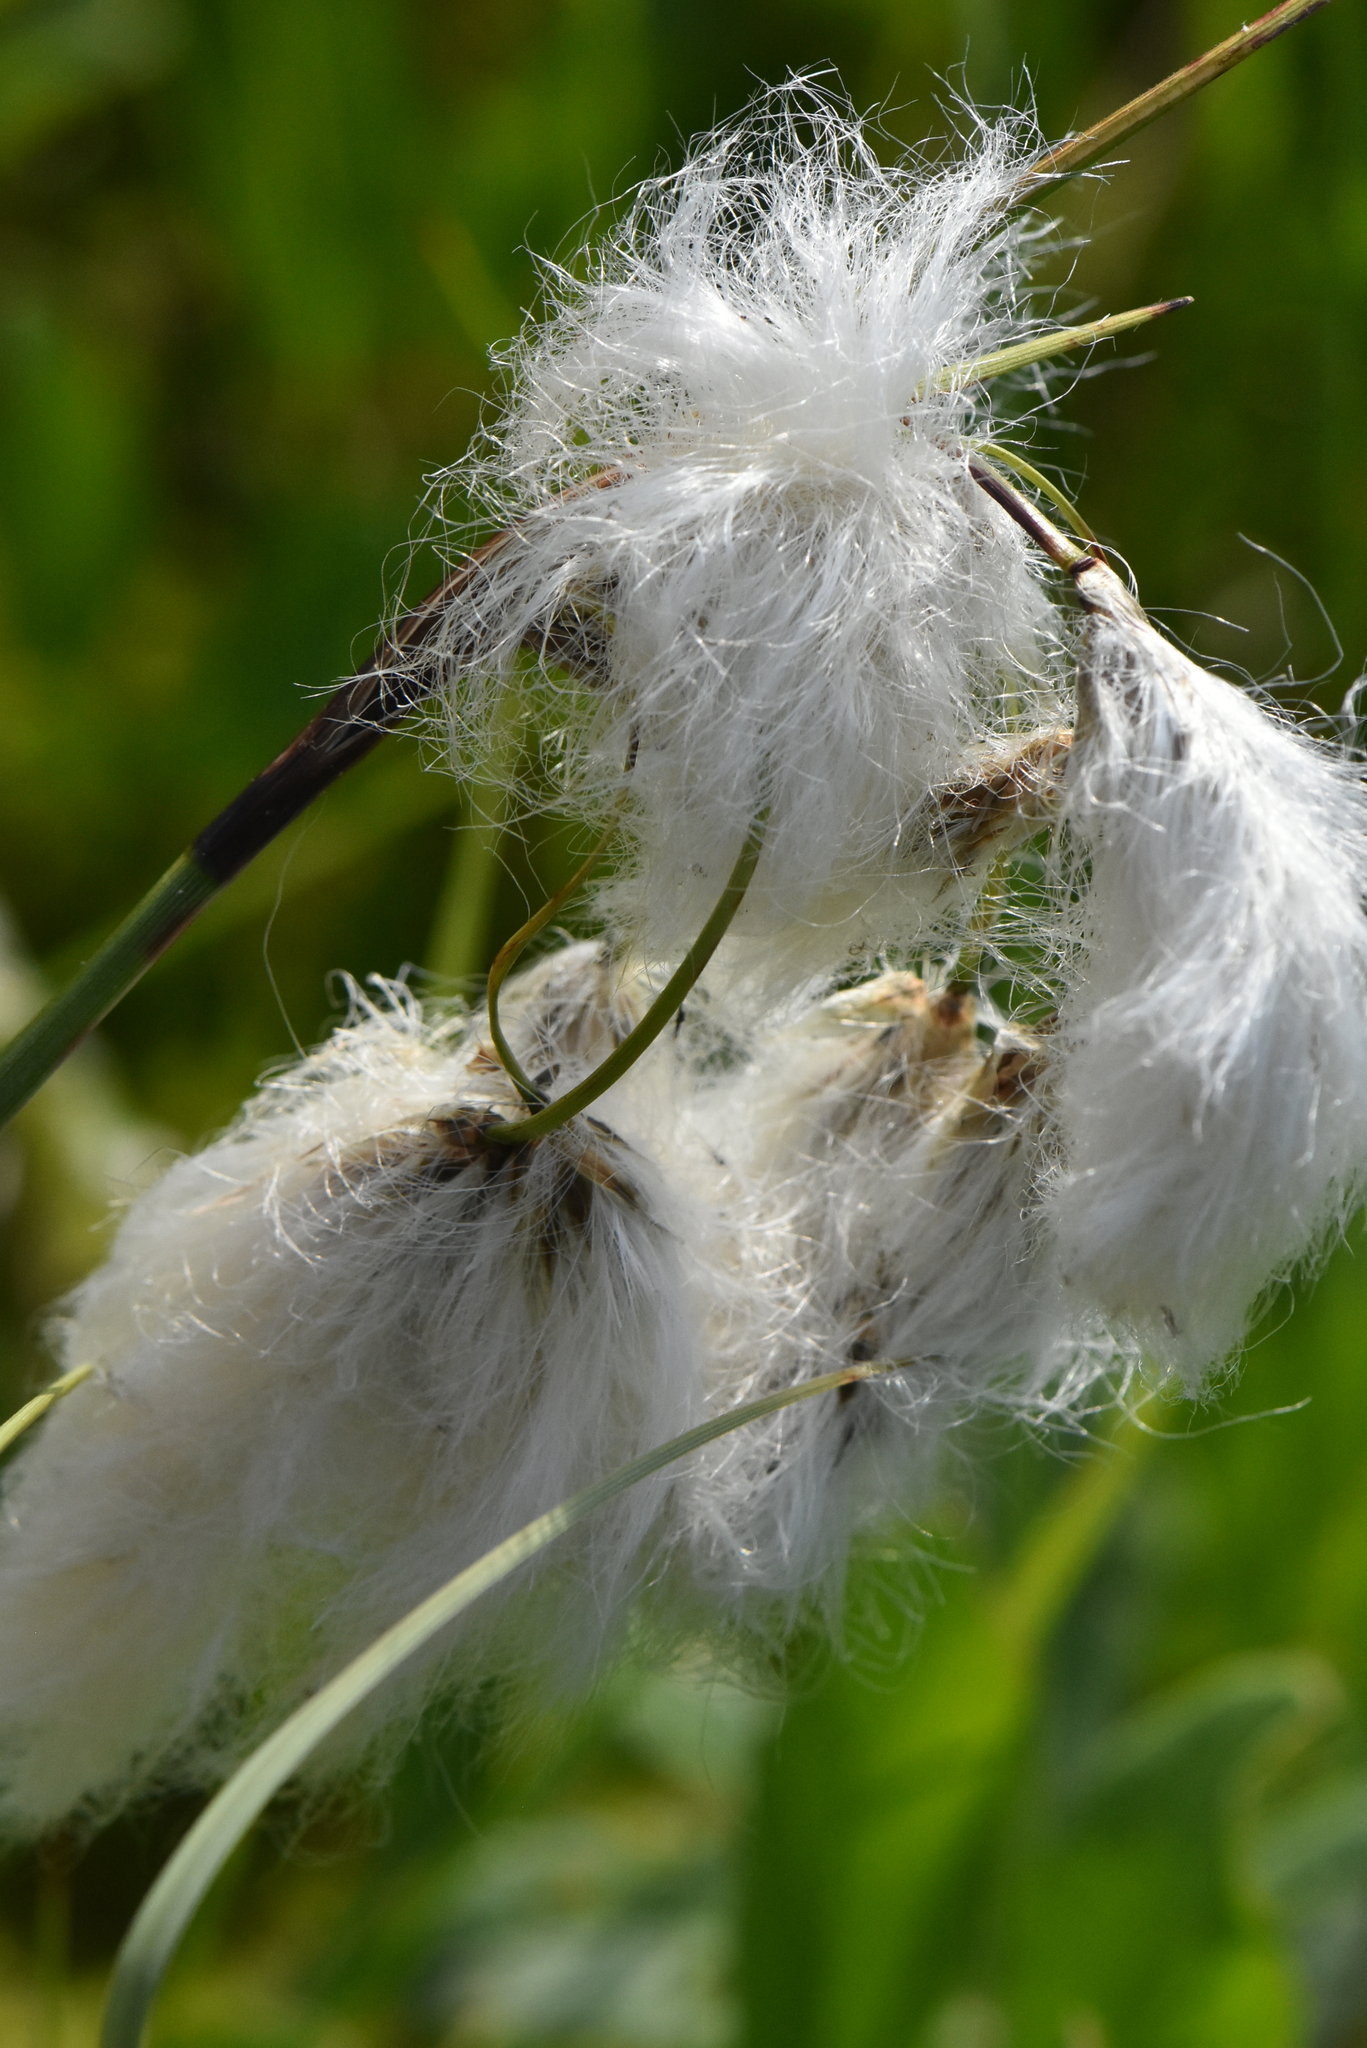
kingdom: Plantae
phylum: Tracheophyta
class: Liliopsida
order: Poales
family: Cyperaceae
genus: Eriophorum
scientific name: Eriophorum angustifolium
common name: Common cottongrass
